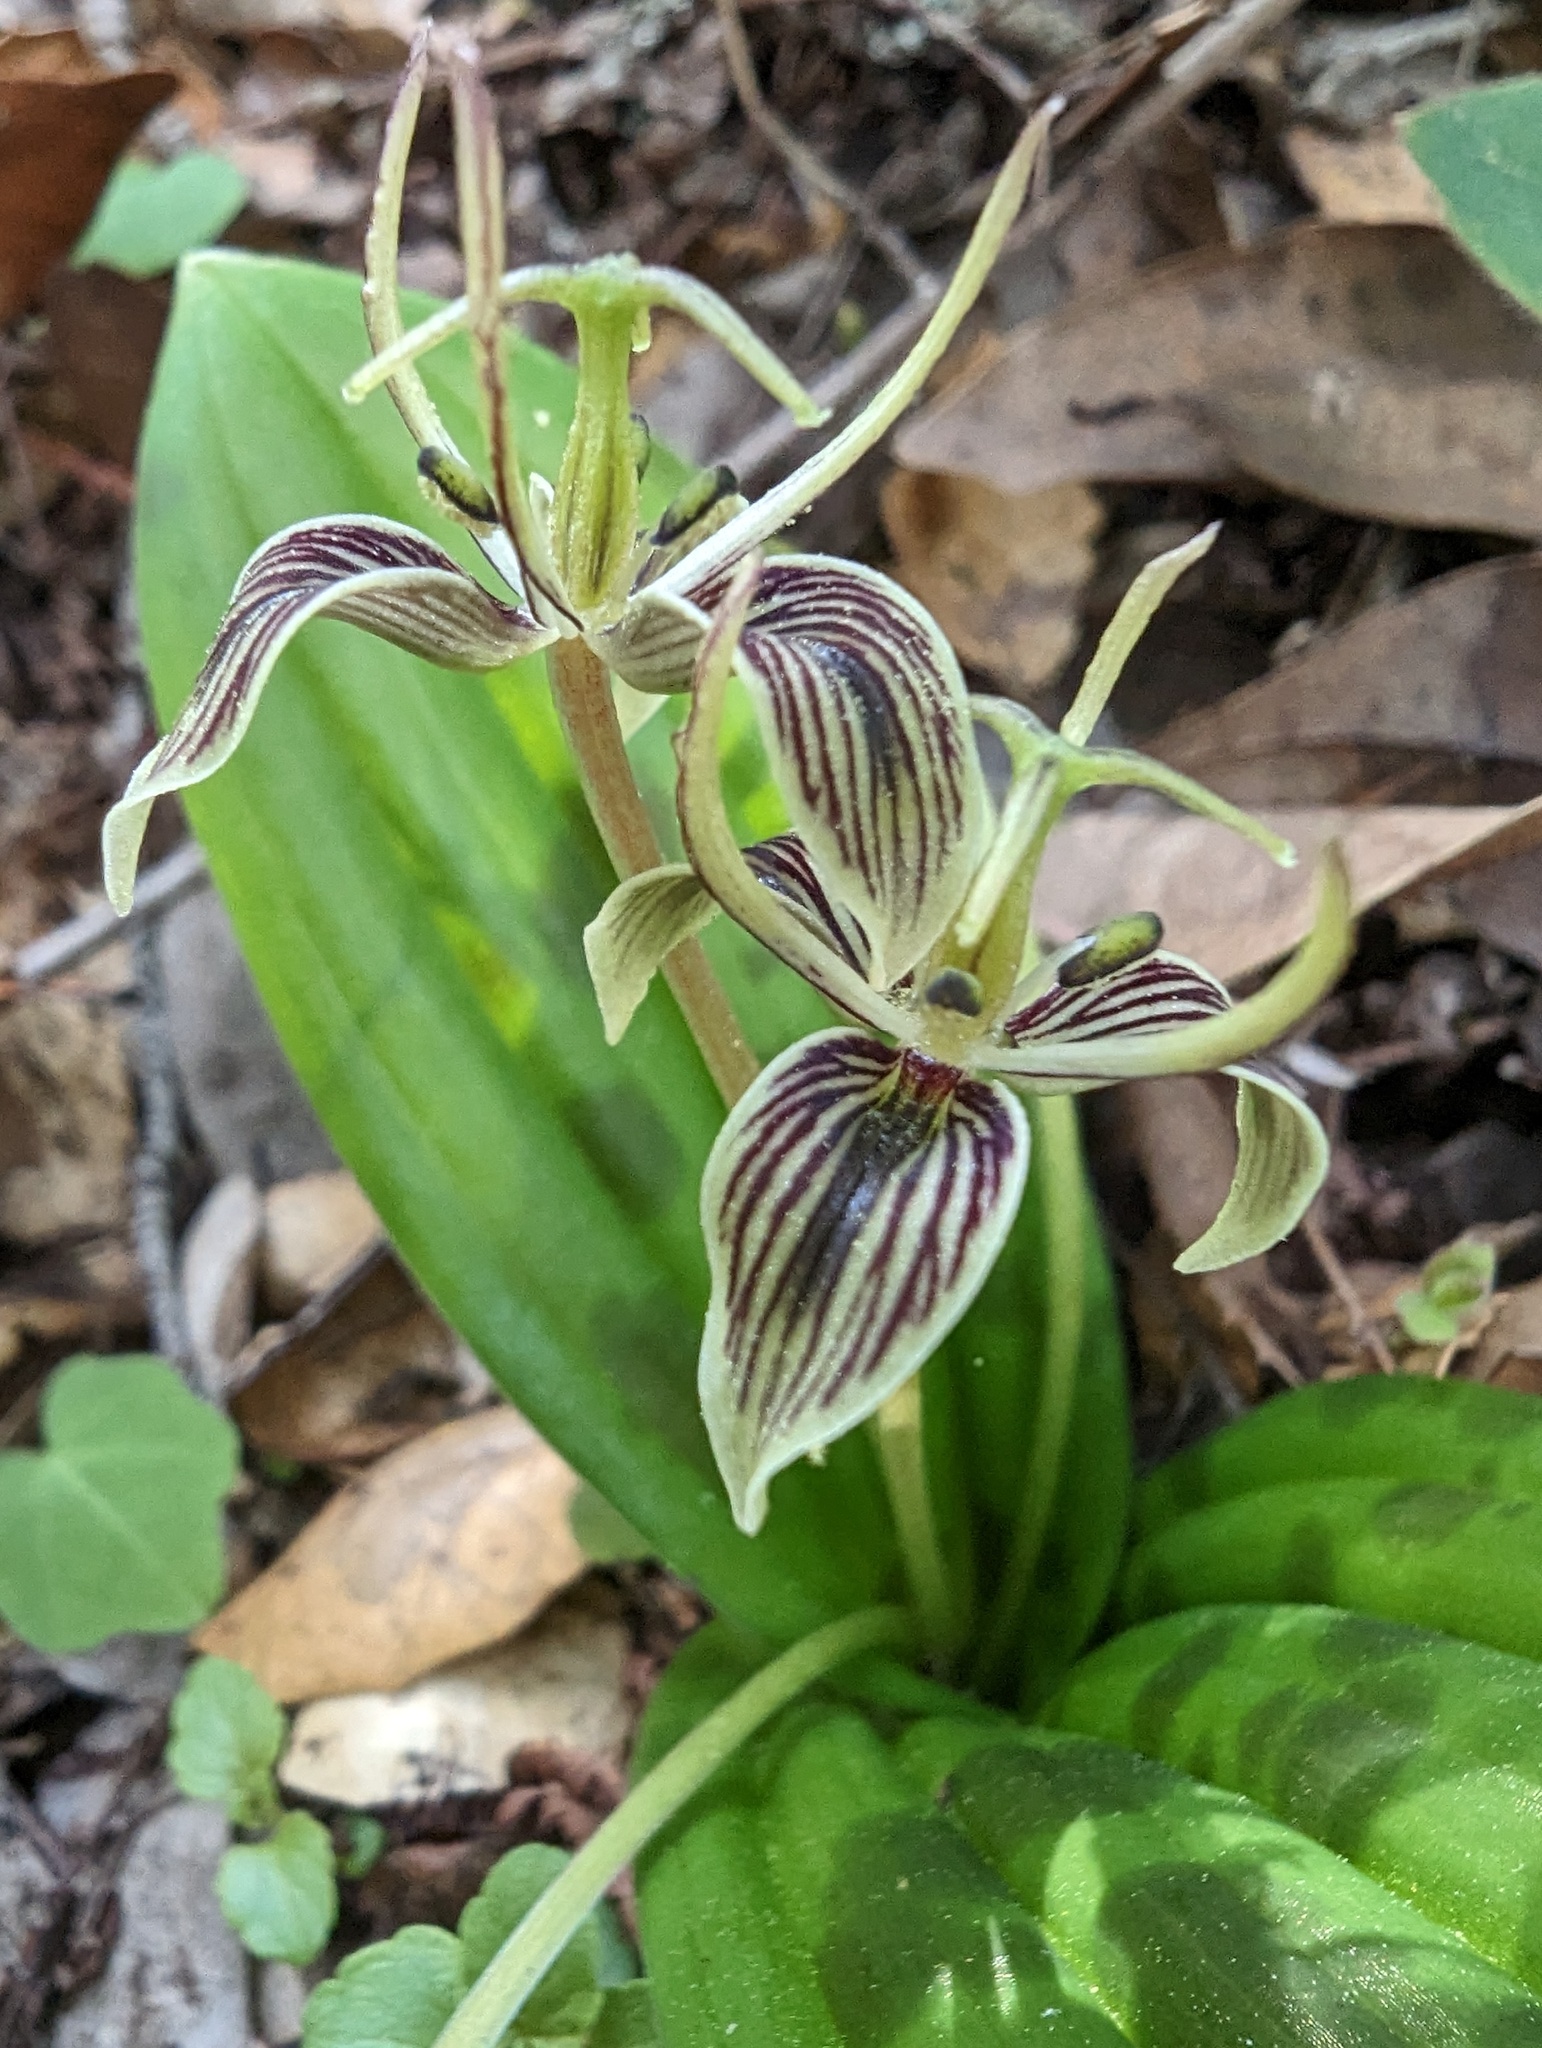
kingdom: Plantae
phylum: Tracheophyta
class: Liliopsida
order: Liliales
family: Liliaceae
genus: Scoliopus
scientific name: Scoliopus bigelovii
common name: Foetid adder's-tongue
